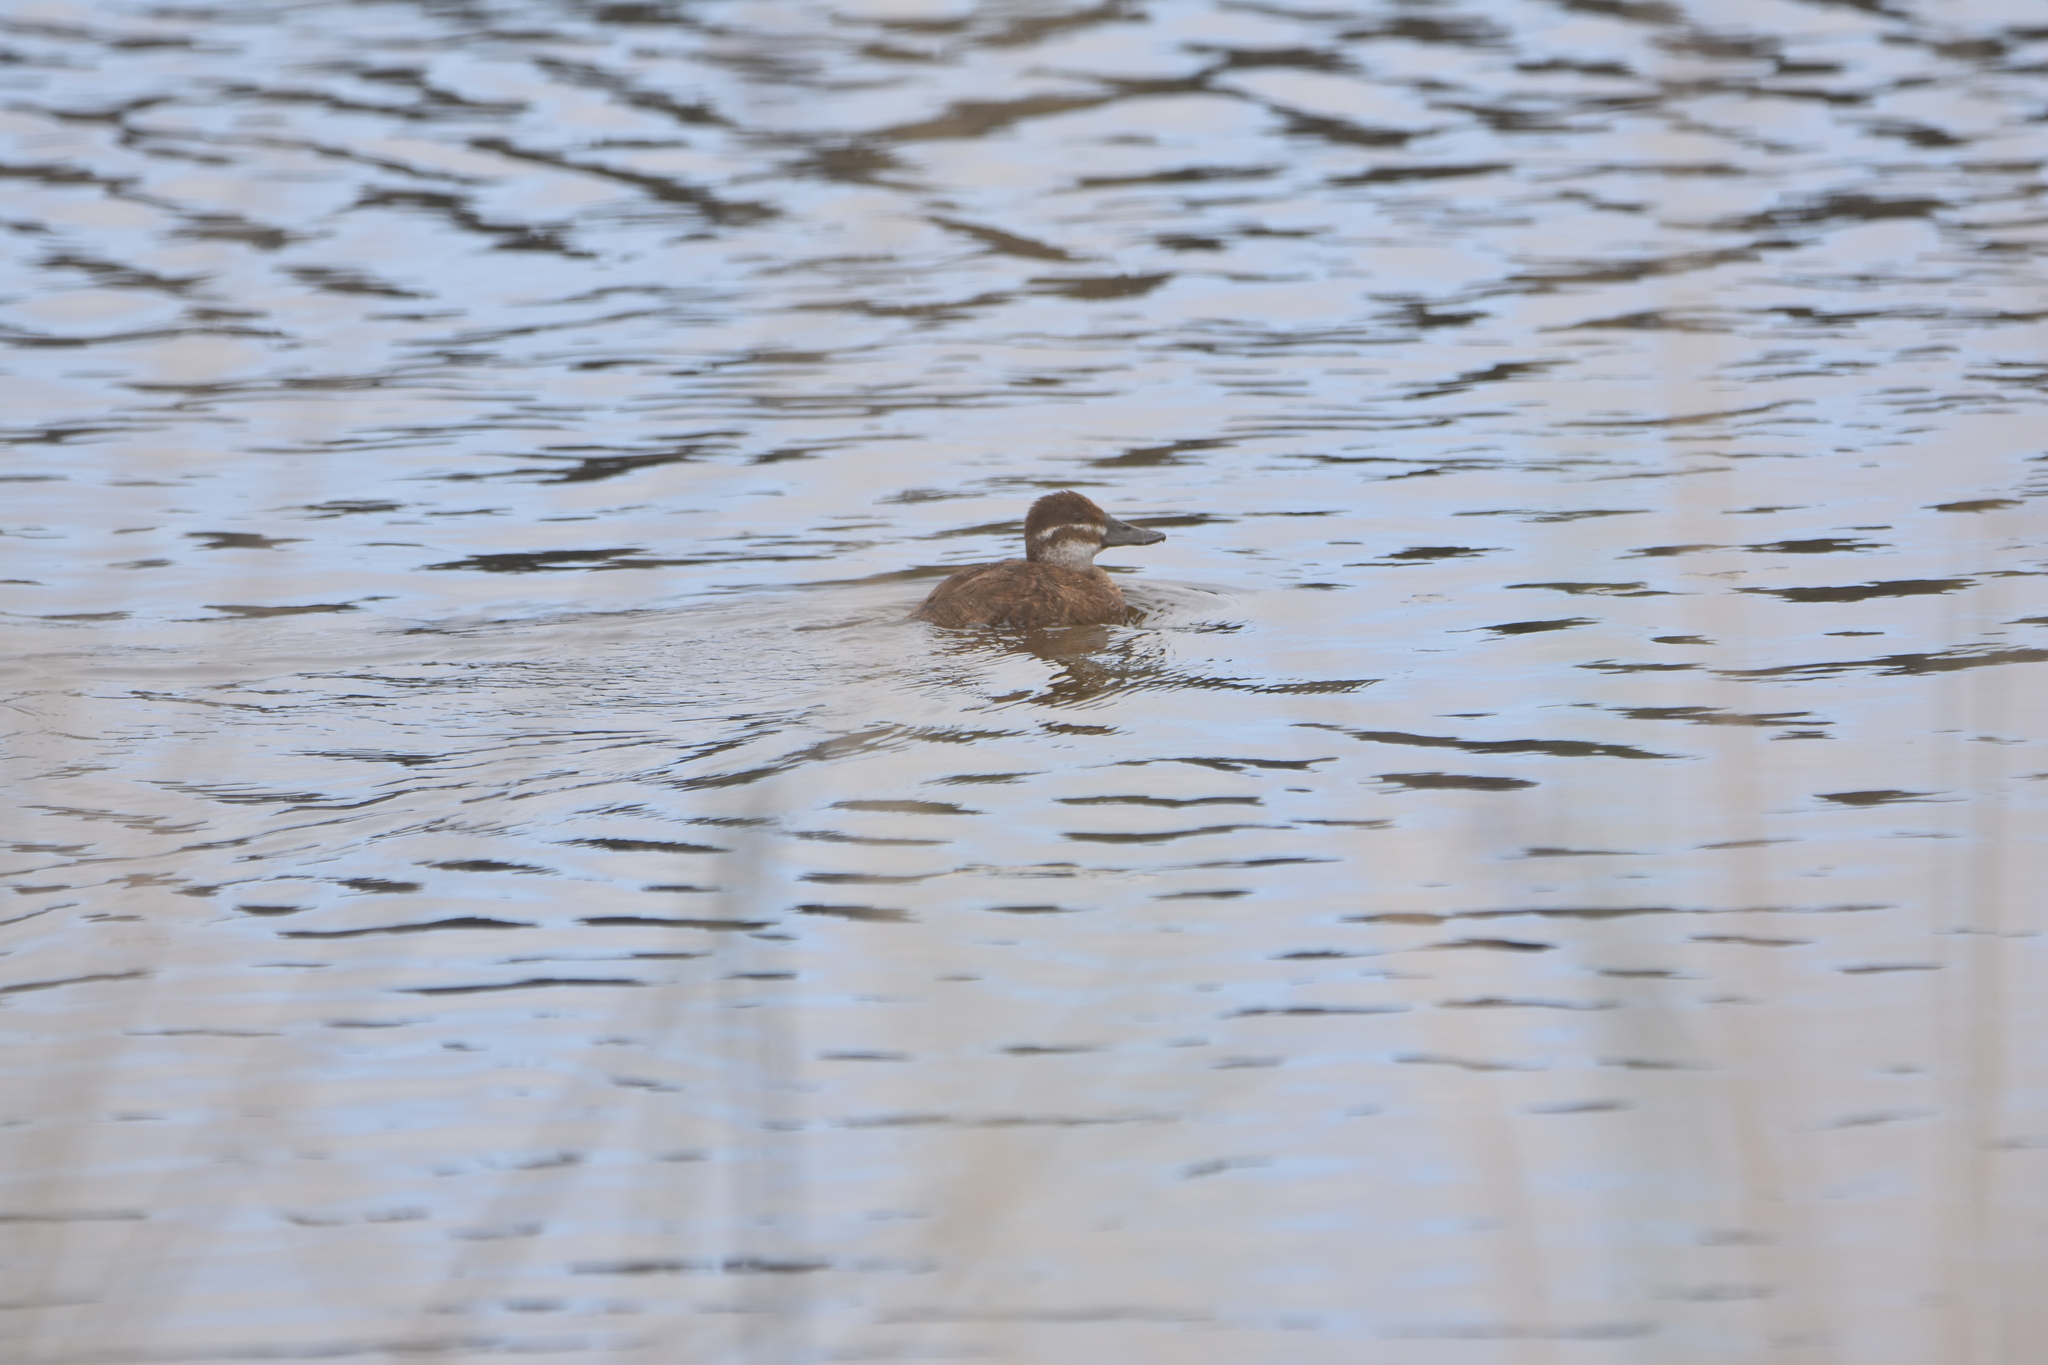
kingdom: Animalia
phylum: Chordata
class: Aves
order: Anseriformes
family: Anatidae
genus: Oxyura
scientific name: Oxyura vittata
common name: Lake duck
